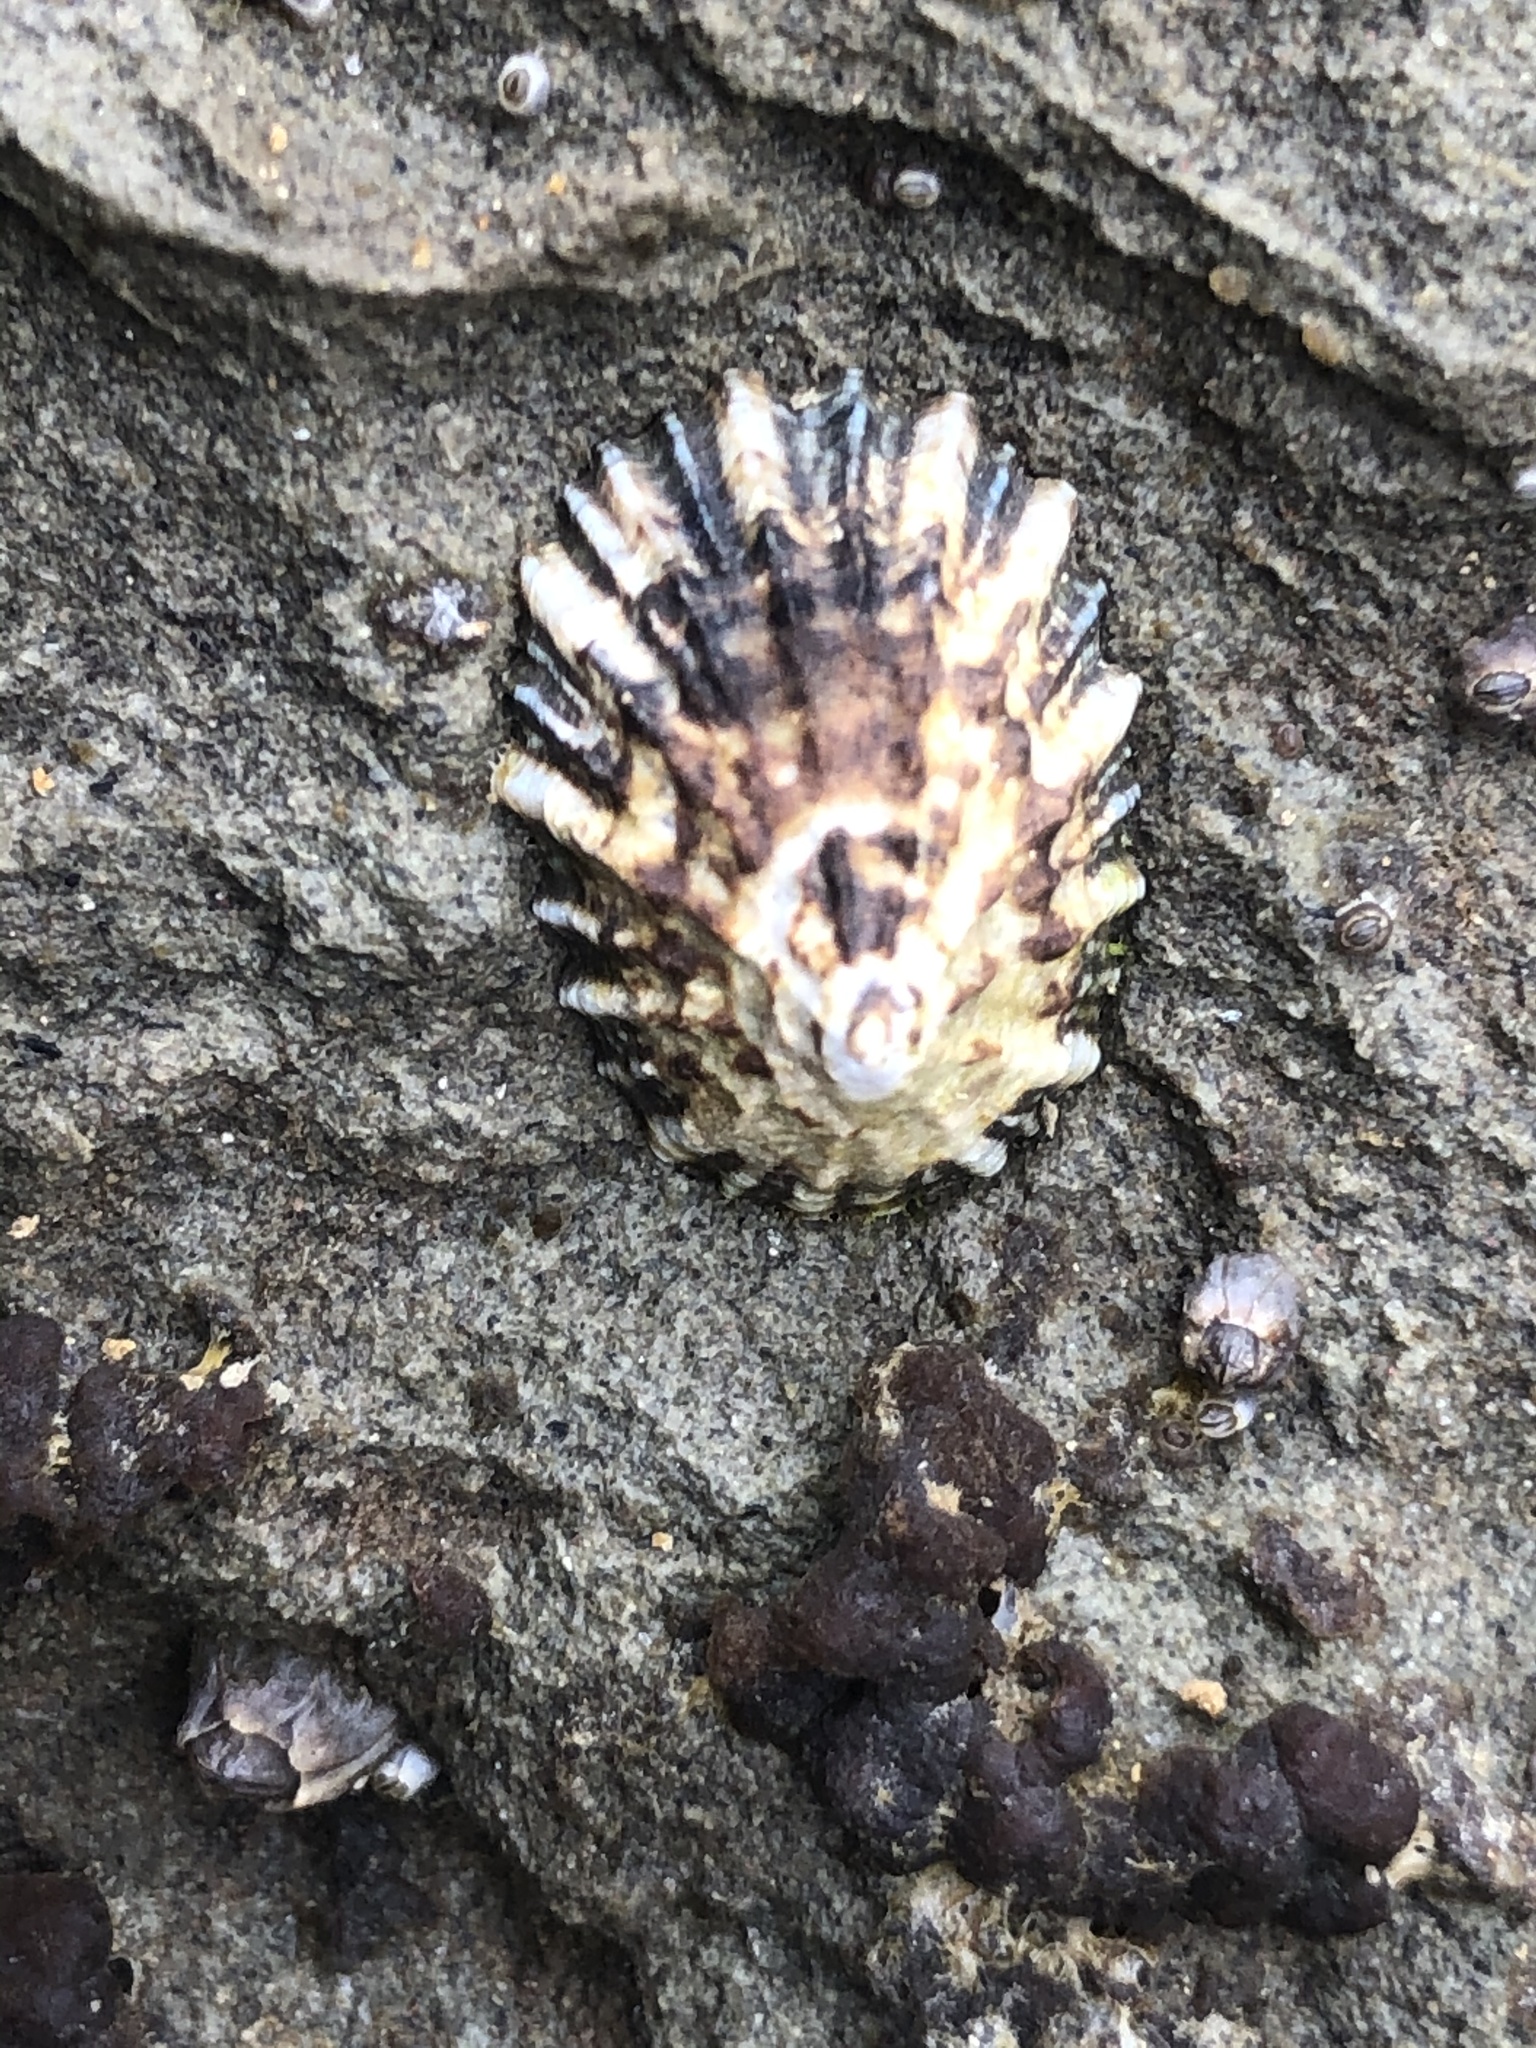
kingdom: Animalia
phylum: Mollusca
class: Gastropoda
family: Lottiidae
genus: Lottia
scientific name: Lottia scabra
